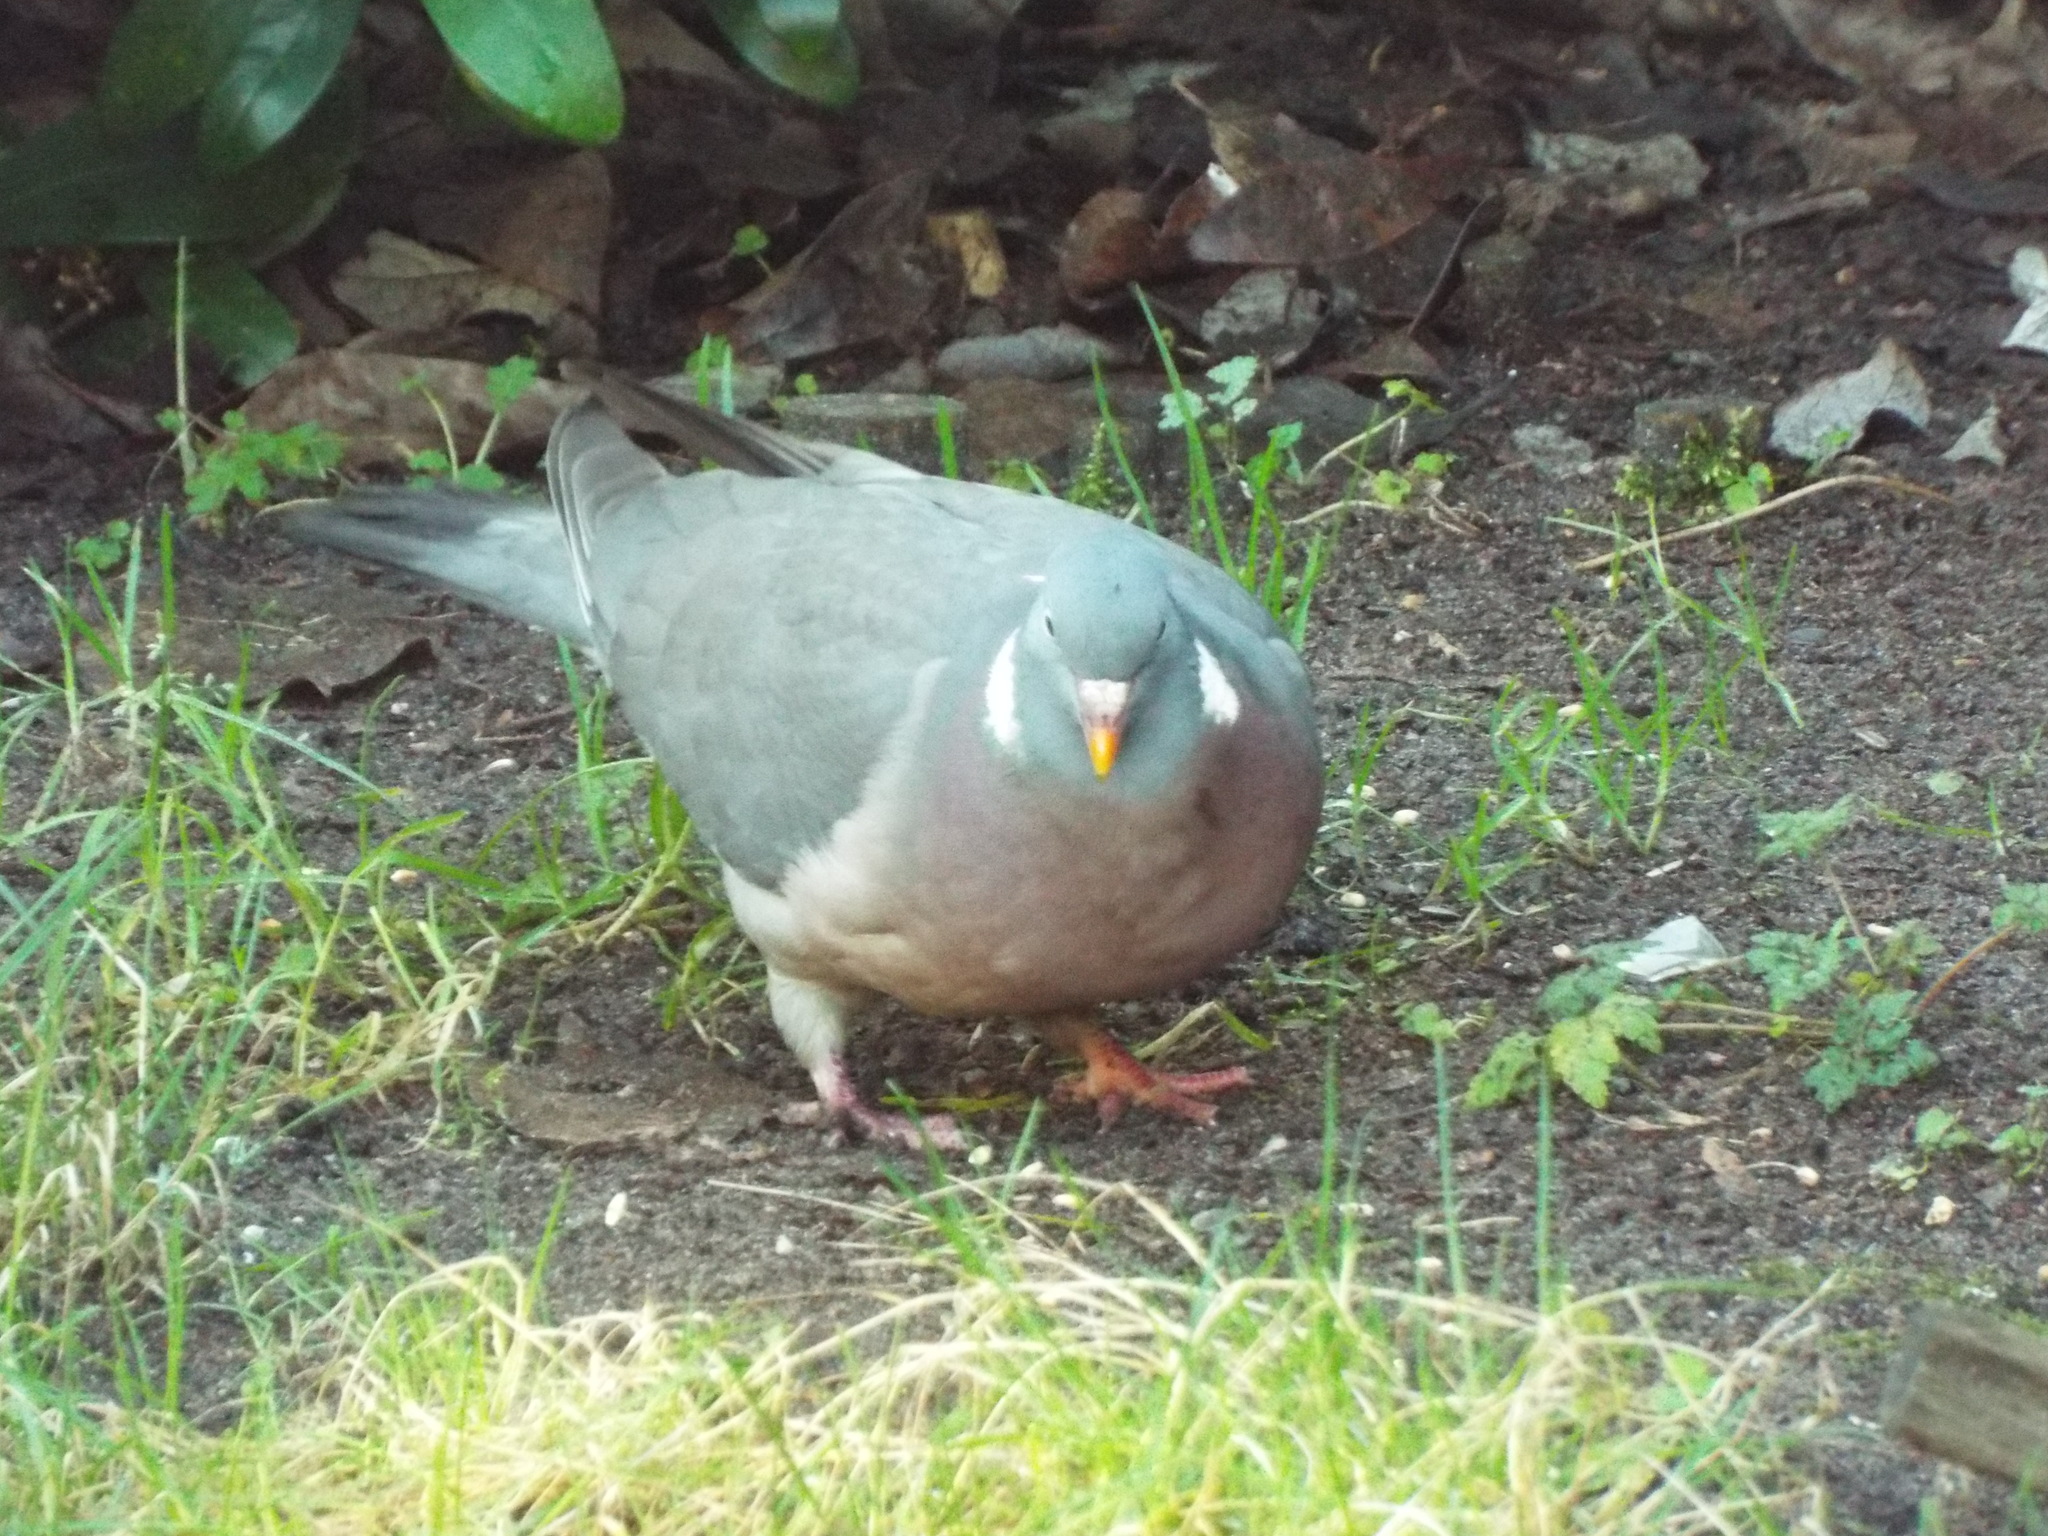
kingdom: Animalia
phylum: Chordata
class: Aves
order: Columbiformes
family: Columbidae
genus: Columba
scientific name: Columba palumbus
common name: Common wood pigeon
